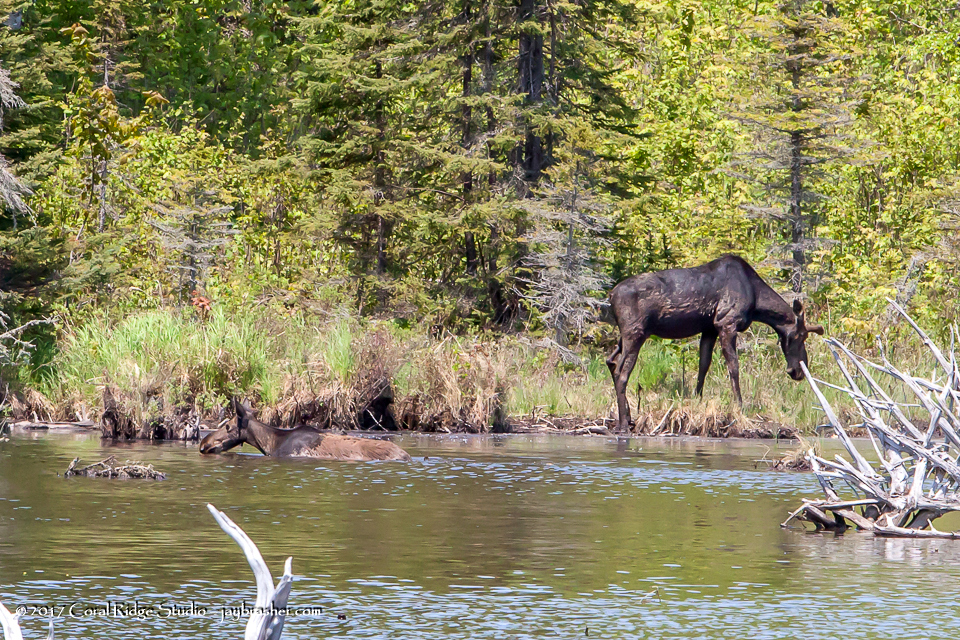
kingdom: Animalia
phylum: Chordata
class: Mammalia
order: Artiodactyla
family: Cervidae
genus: Alces
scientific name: Alces alces
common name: Moose
